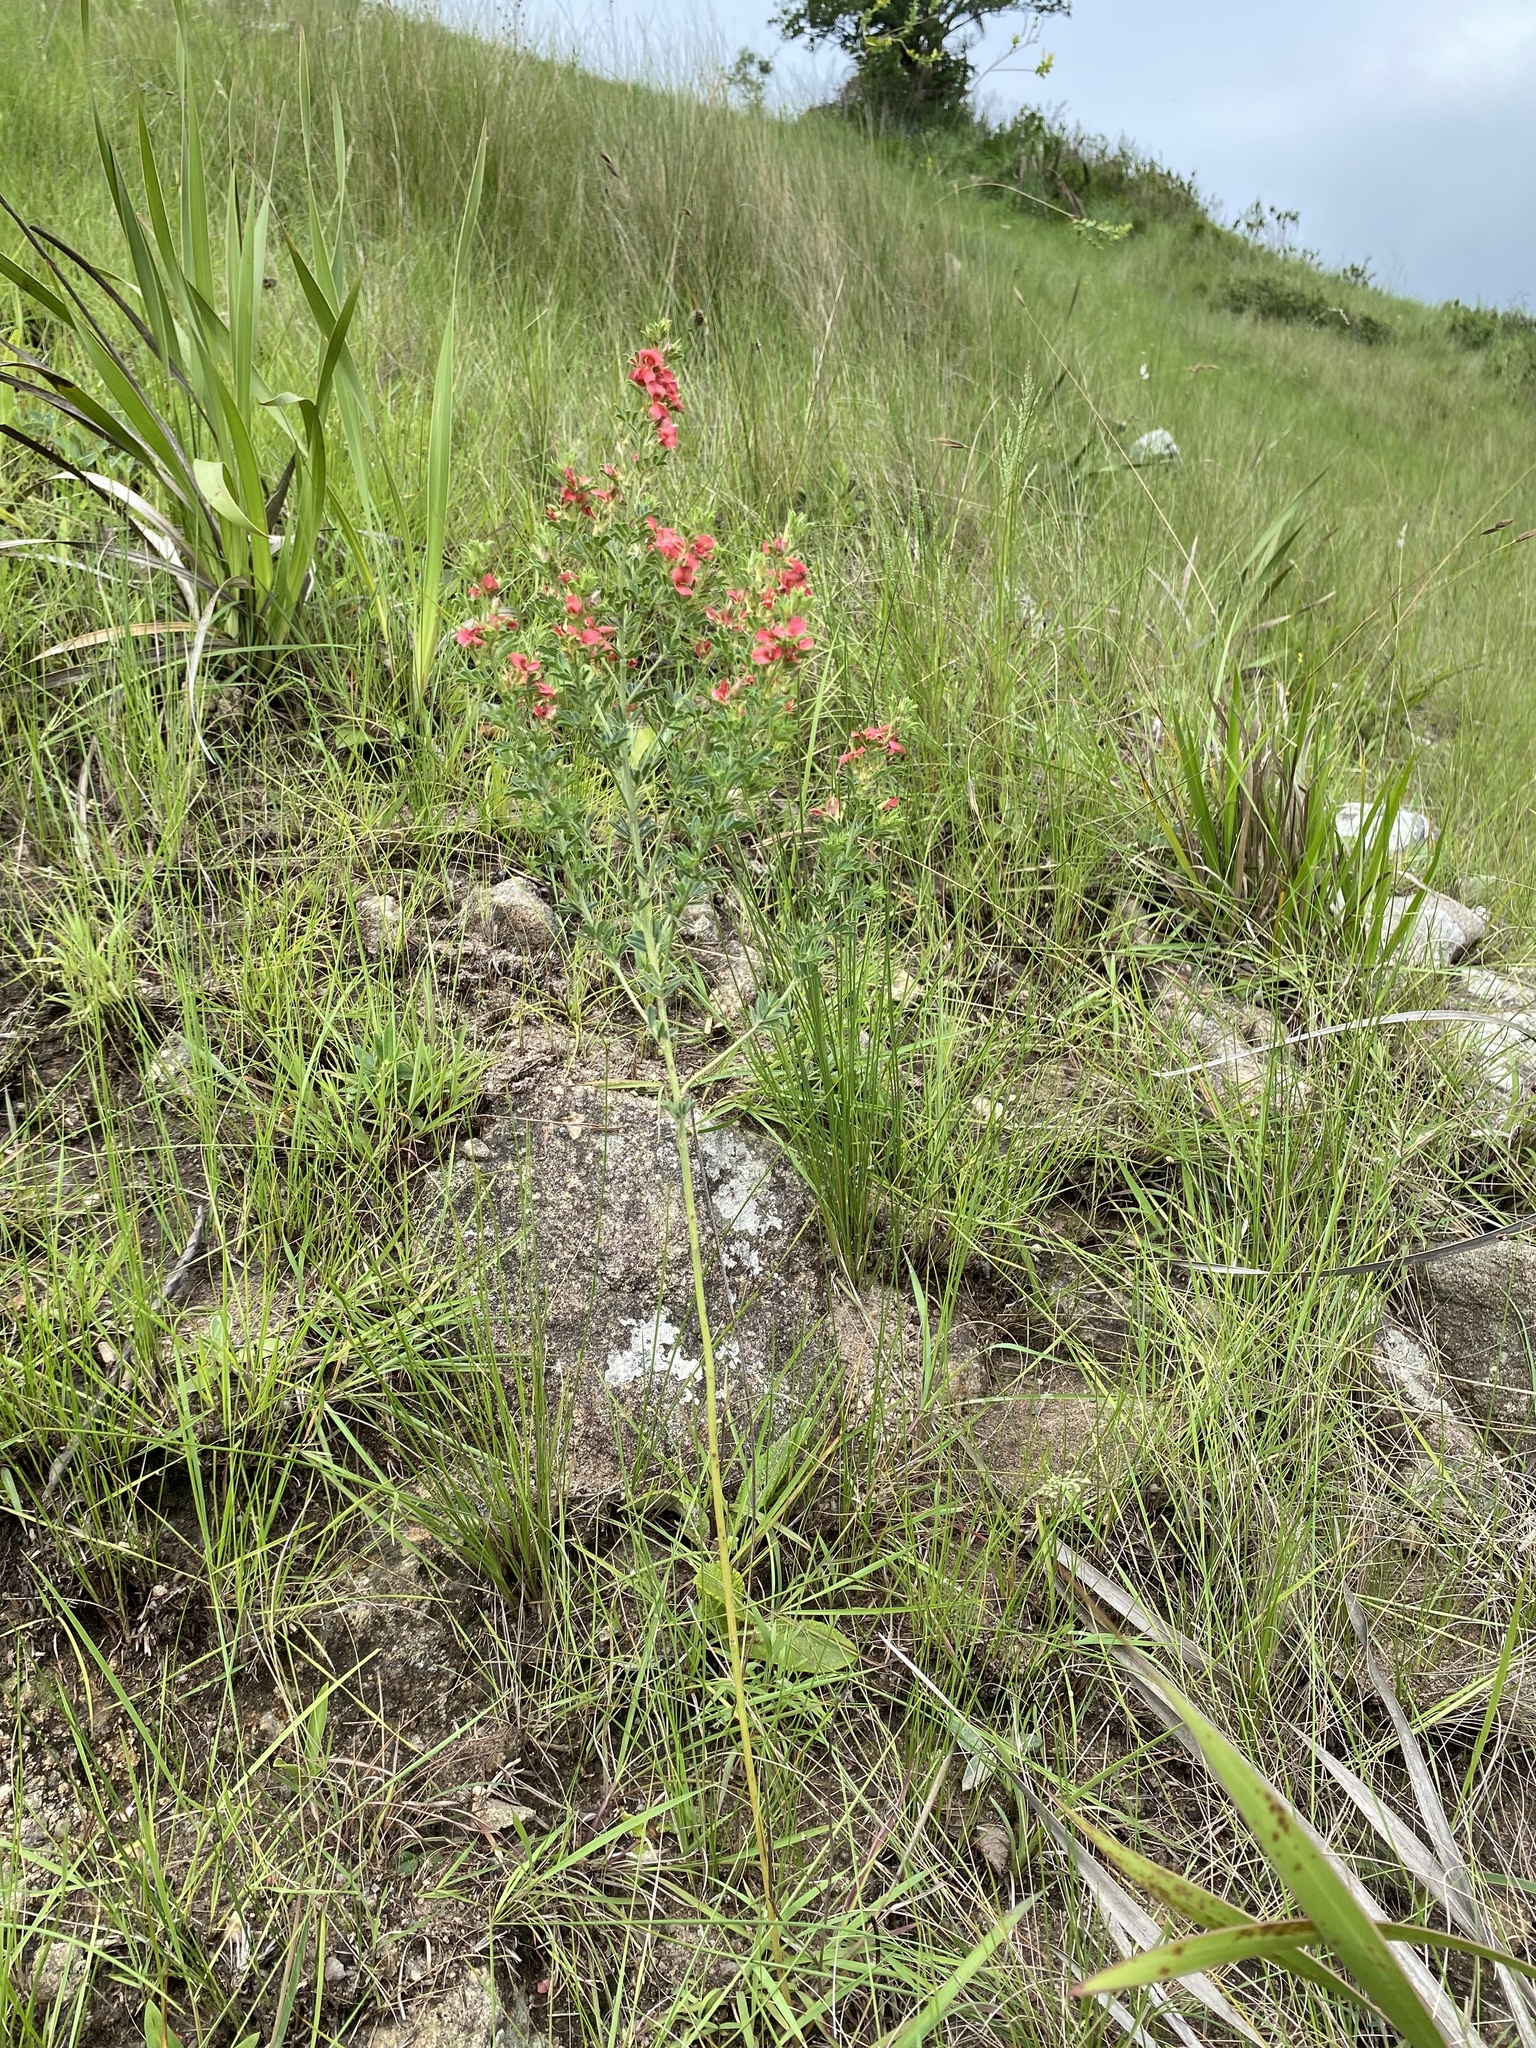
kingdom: Plantae
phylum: Tracheophyta
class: Magnoliopsida
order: Fabales
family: Fabaceae
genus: Indigofera
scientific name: Indigofera hilaris
